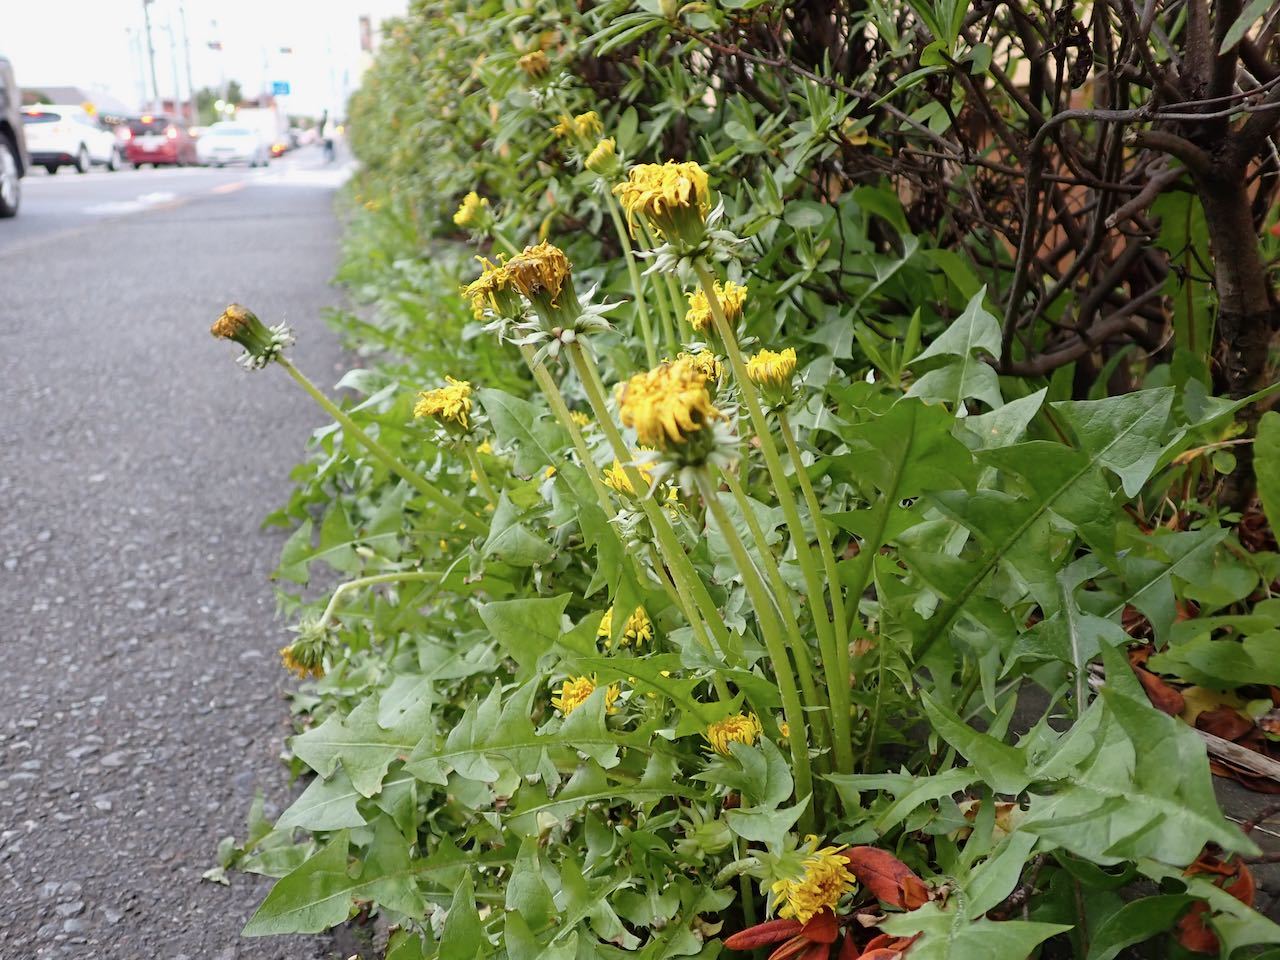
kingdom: Plantae
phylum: Tracheophyta
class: Magnoliopsida
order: Asterales
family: Asteraceae
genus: Taraxacum
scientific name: Taraxacum officinale
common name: Common dandelion
